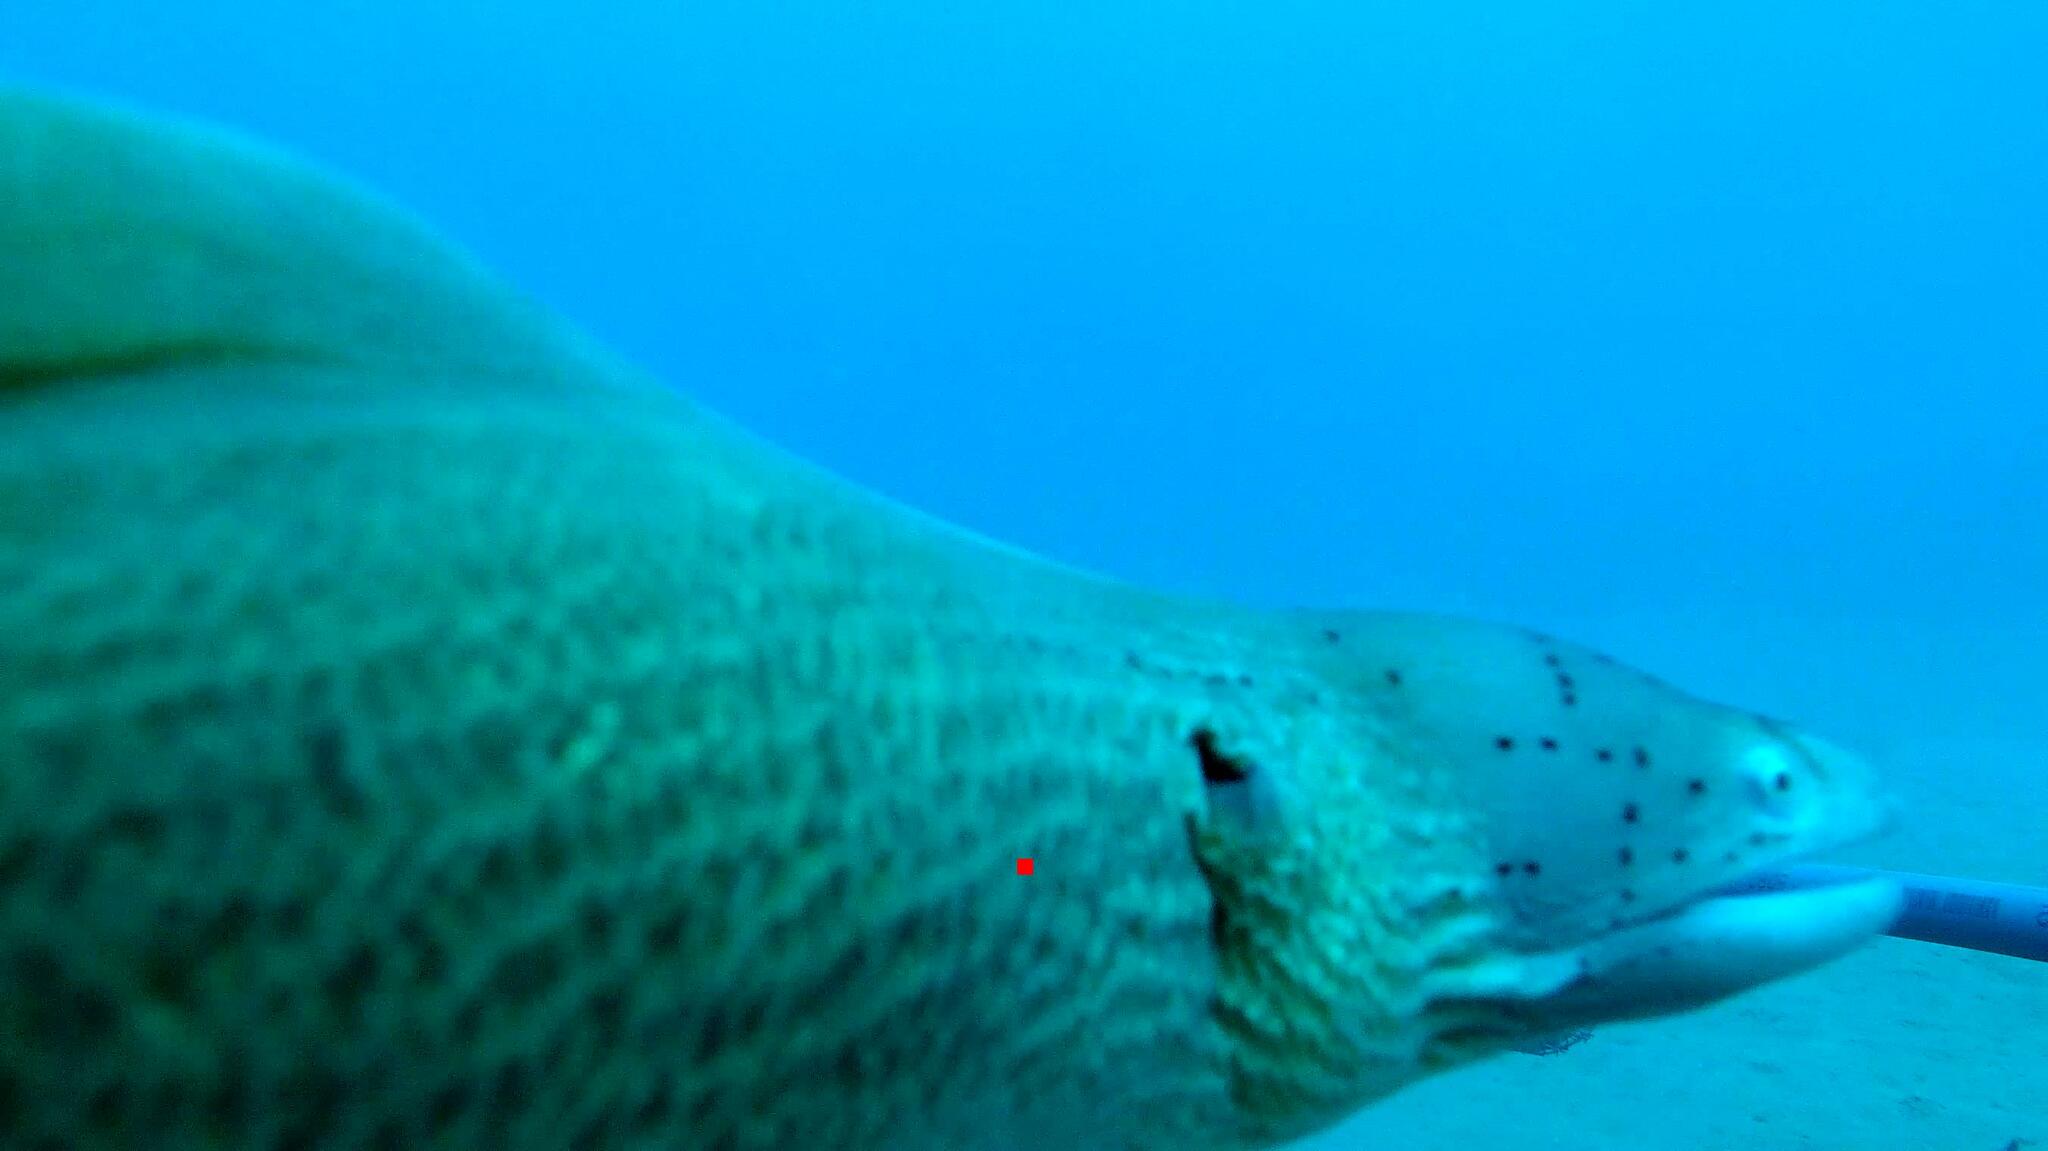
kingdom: Animalia
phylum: Chordata
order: Anguilliformes
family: Muraenidae
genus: Gymnothorax
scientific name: Gymnothorax griseus
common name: Geometric moray
